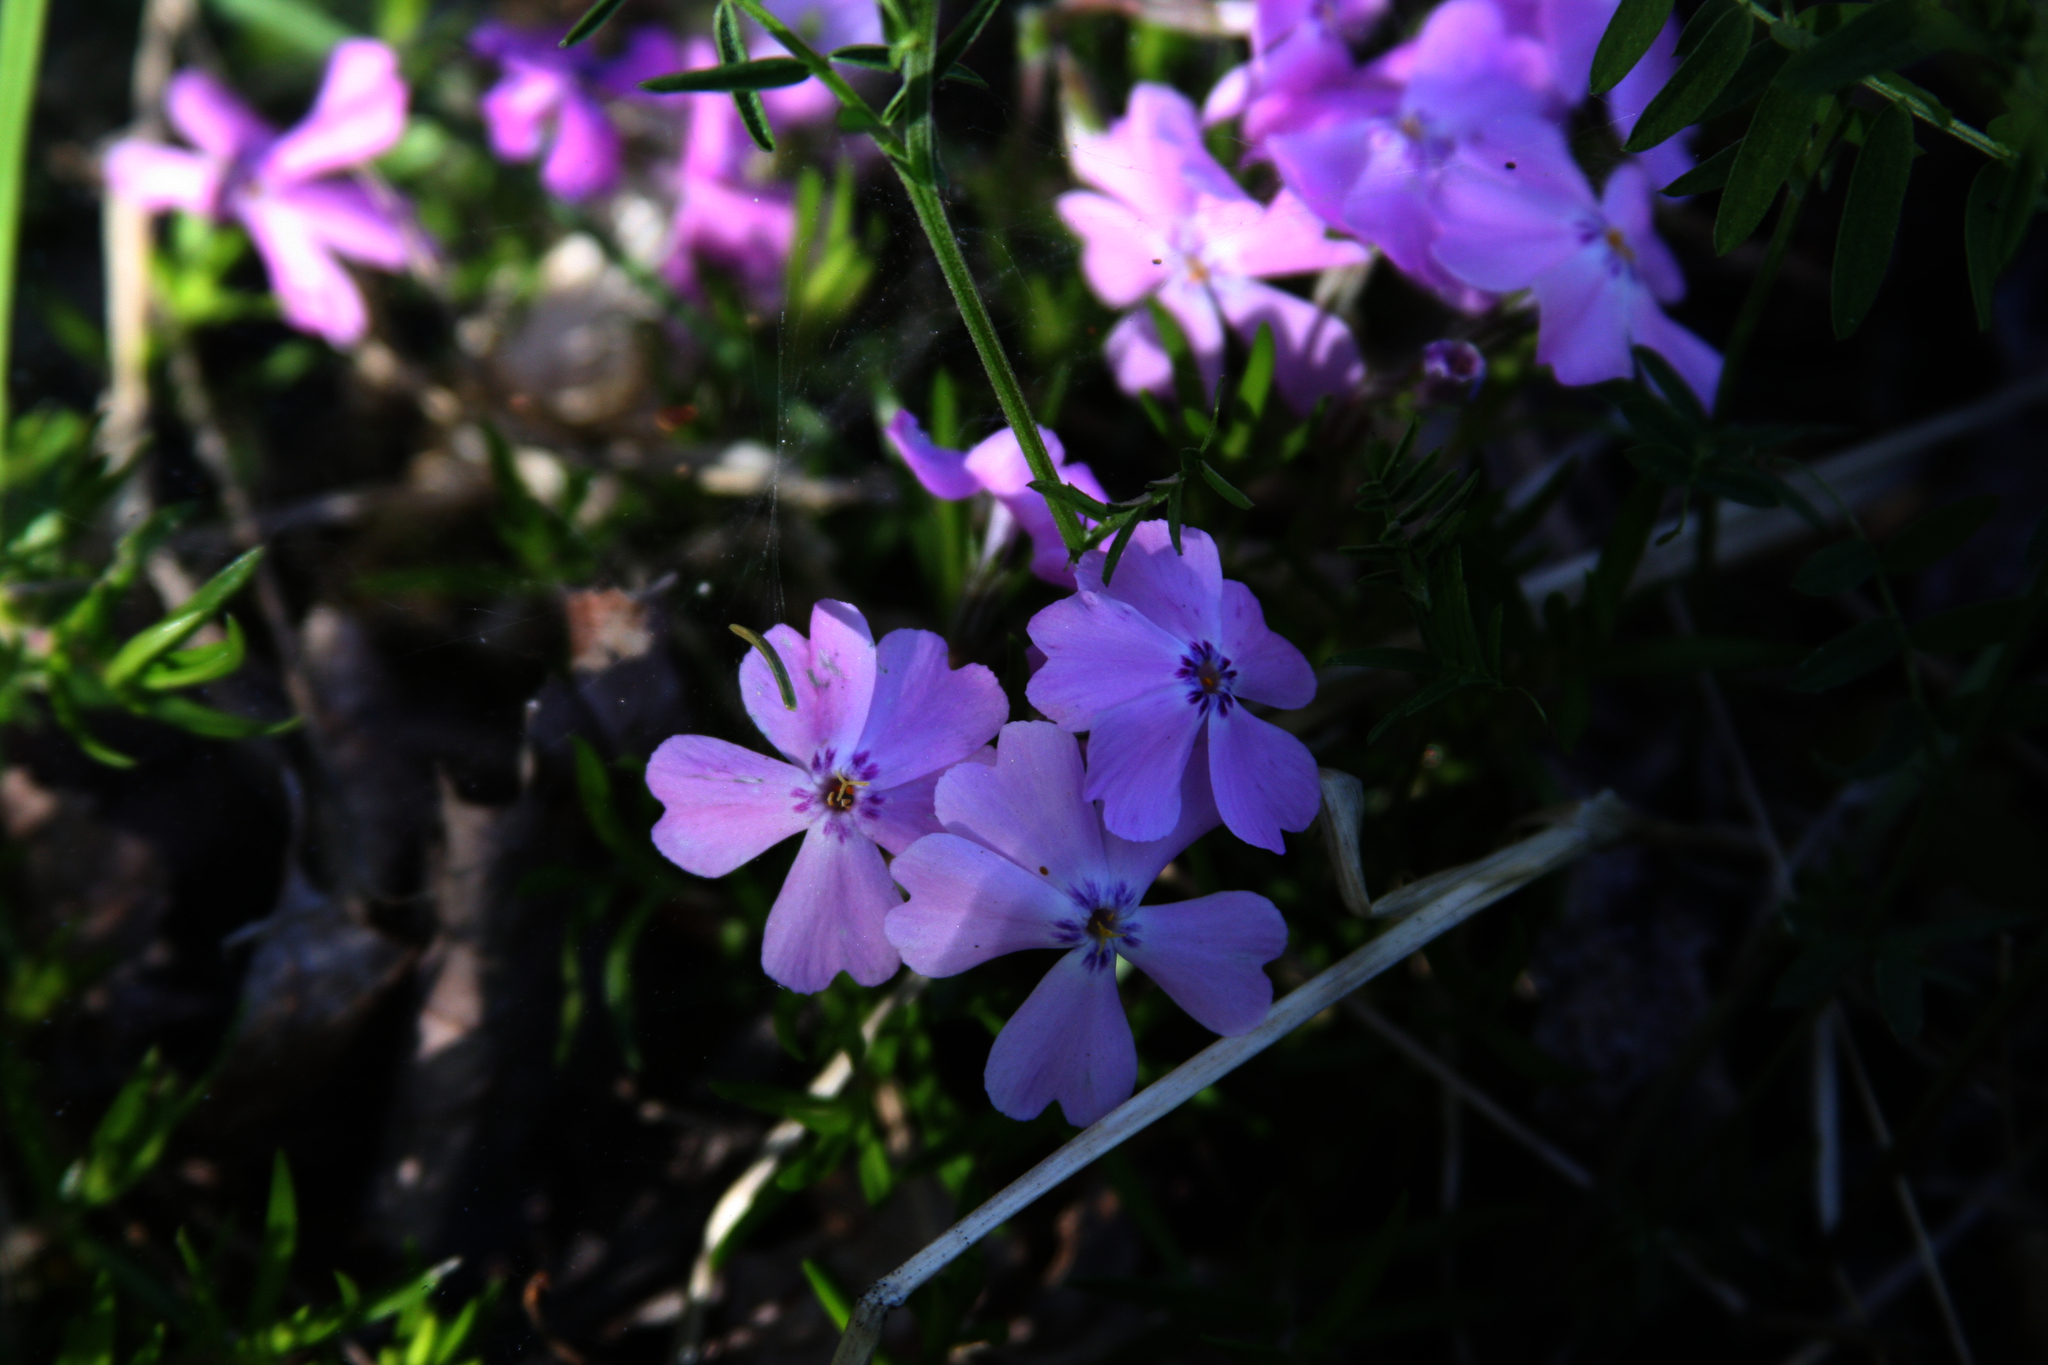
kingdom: Plantae
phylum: Tracheophyta
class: Magnoliopsida
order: Ericales
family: Polemoniaceae
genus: Phlox
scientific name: Phlox subulata
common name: Moss phlox
